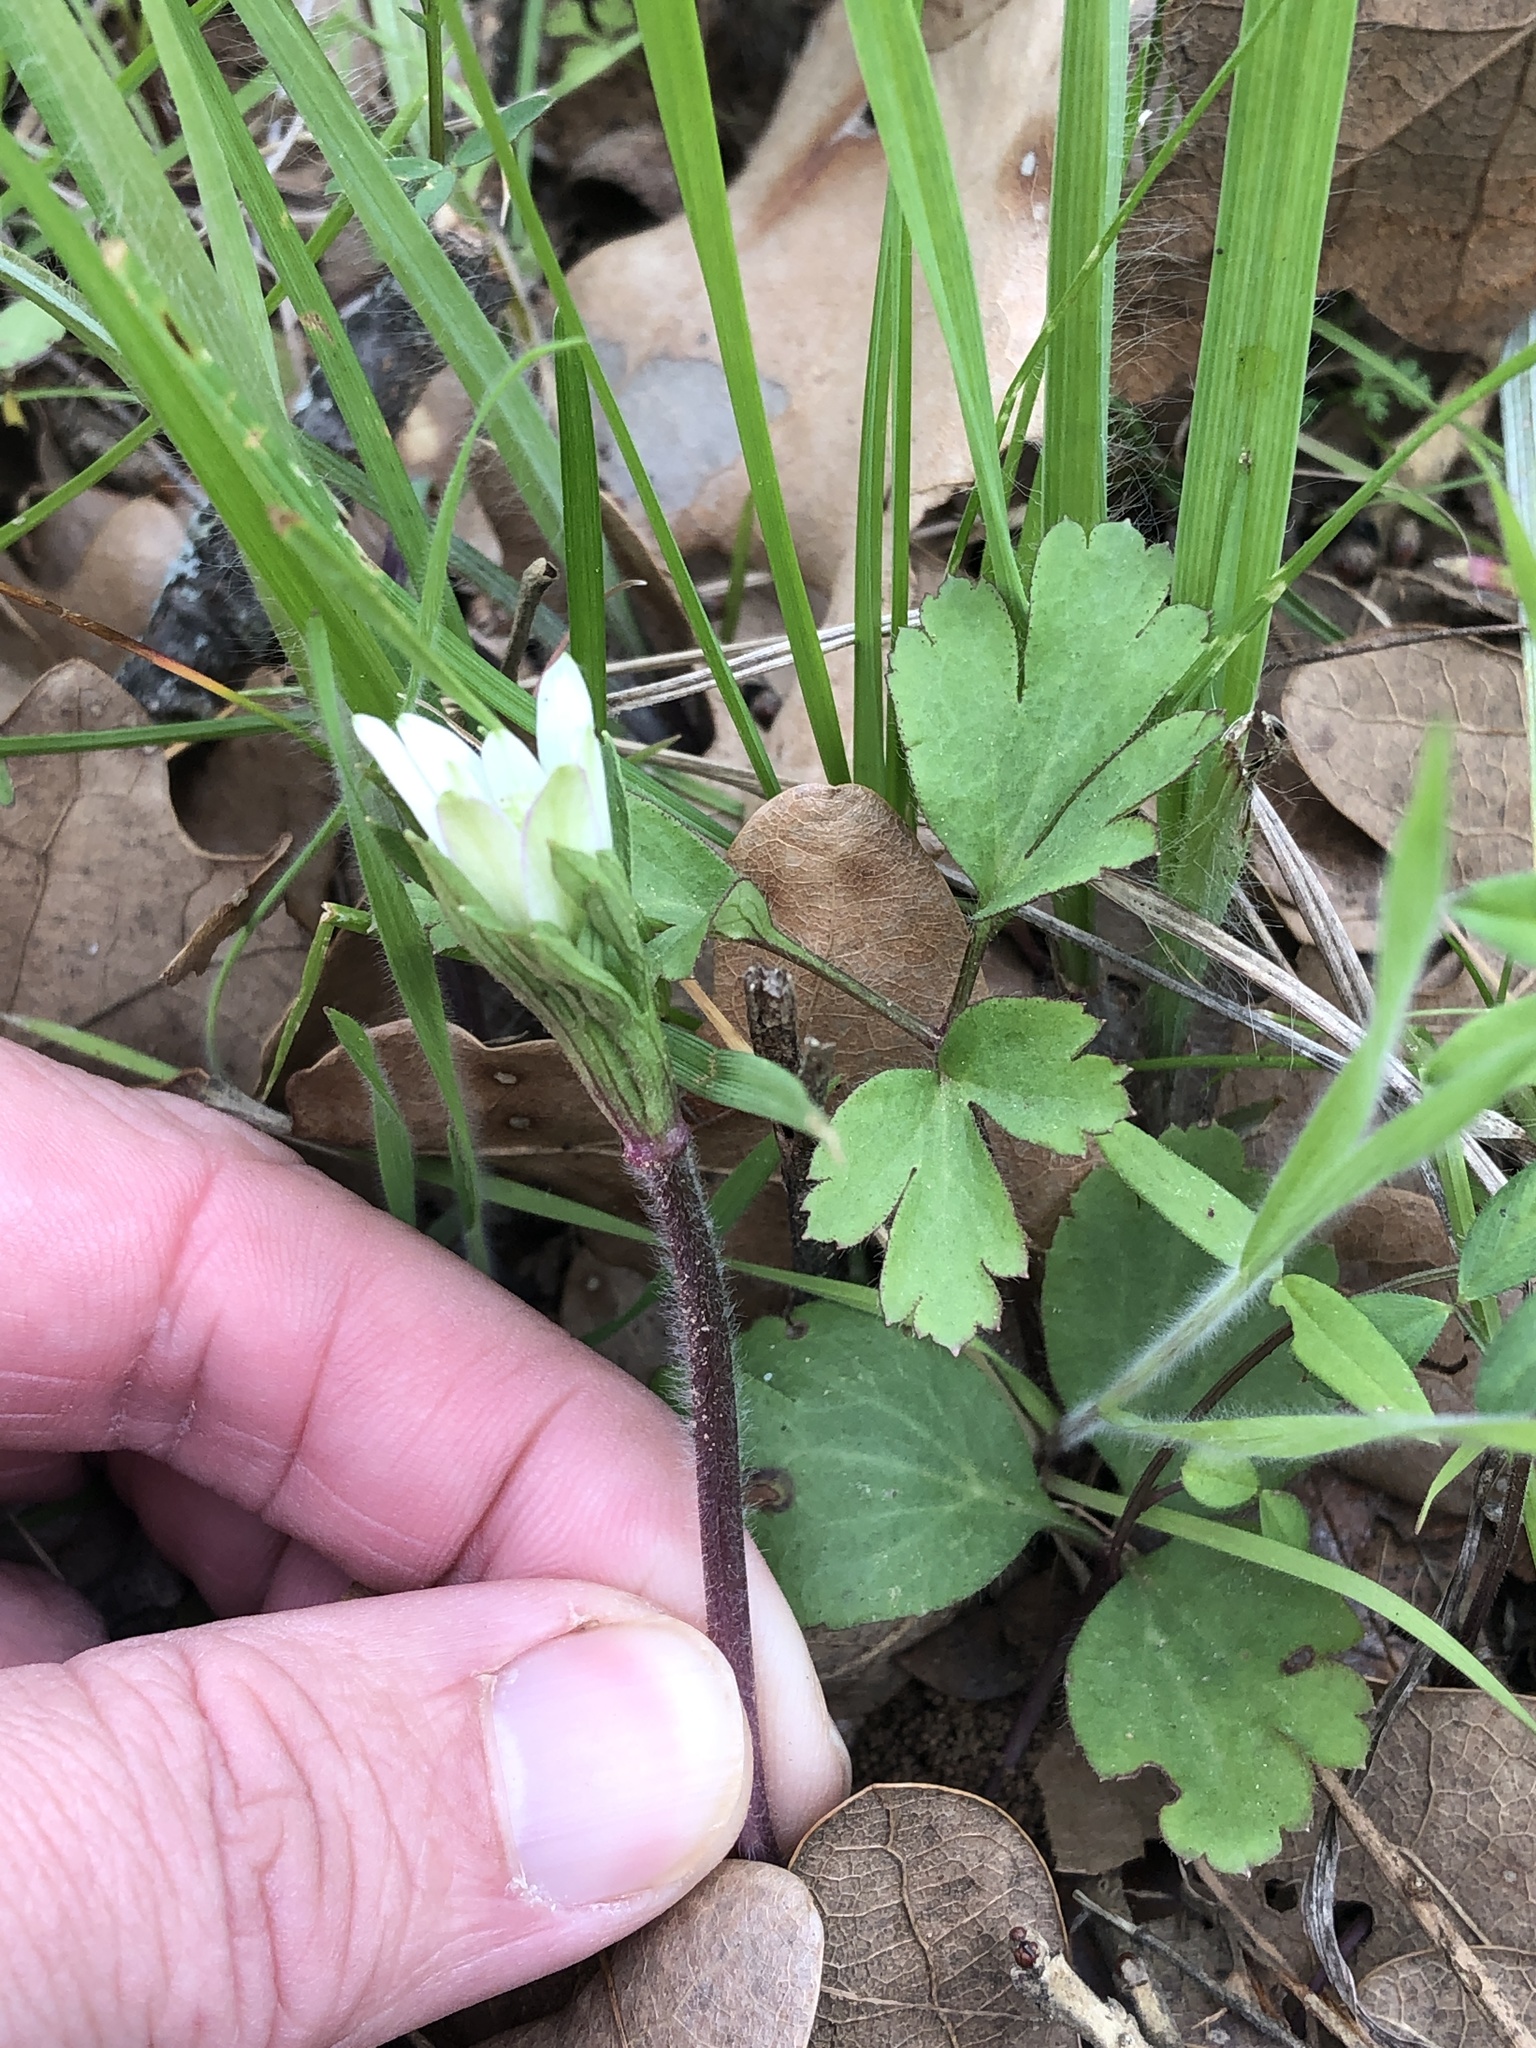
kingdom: Plantae
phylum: Tracheophyta
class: Magnoliopsida
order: Ranunculales
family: Ranunculaceae
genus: Anemone
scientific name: Anemone berlandieri
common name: Ten-petal anemone
